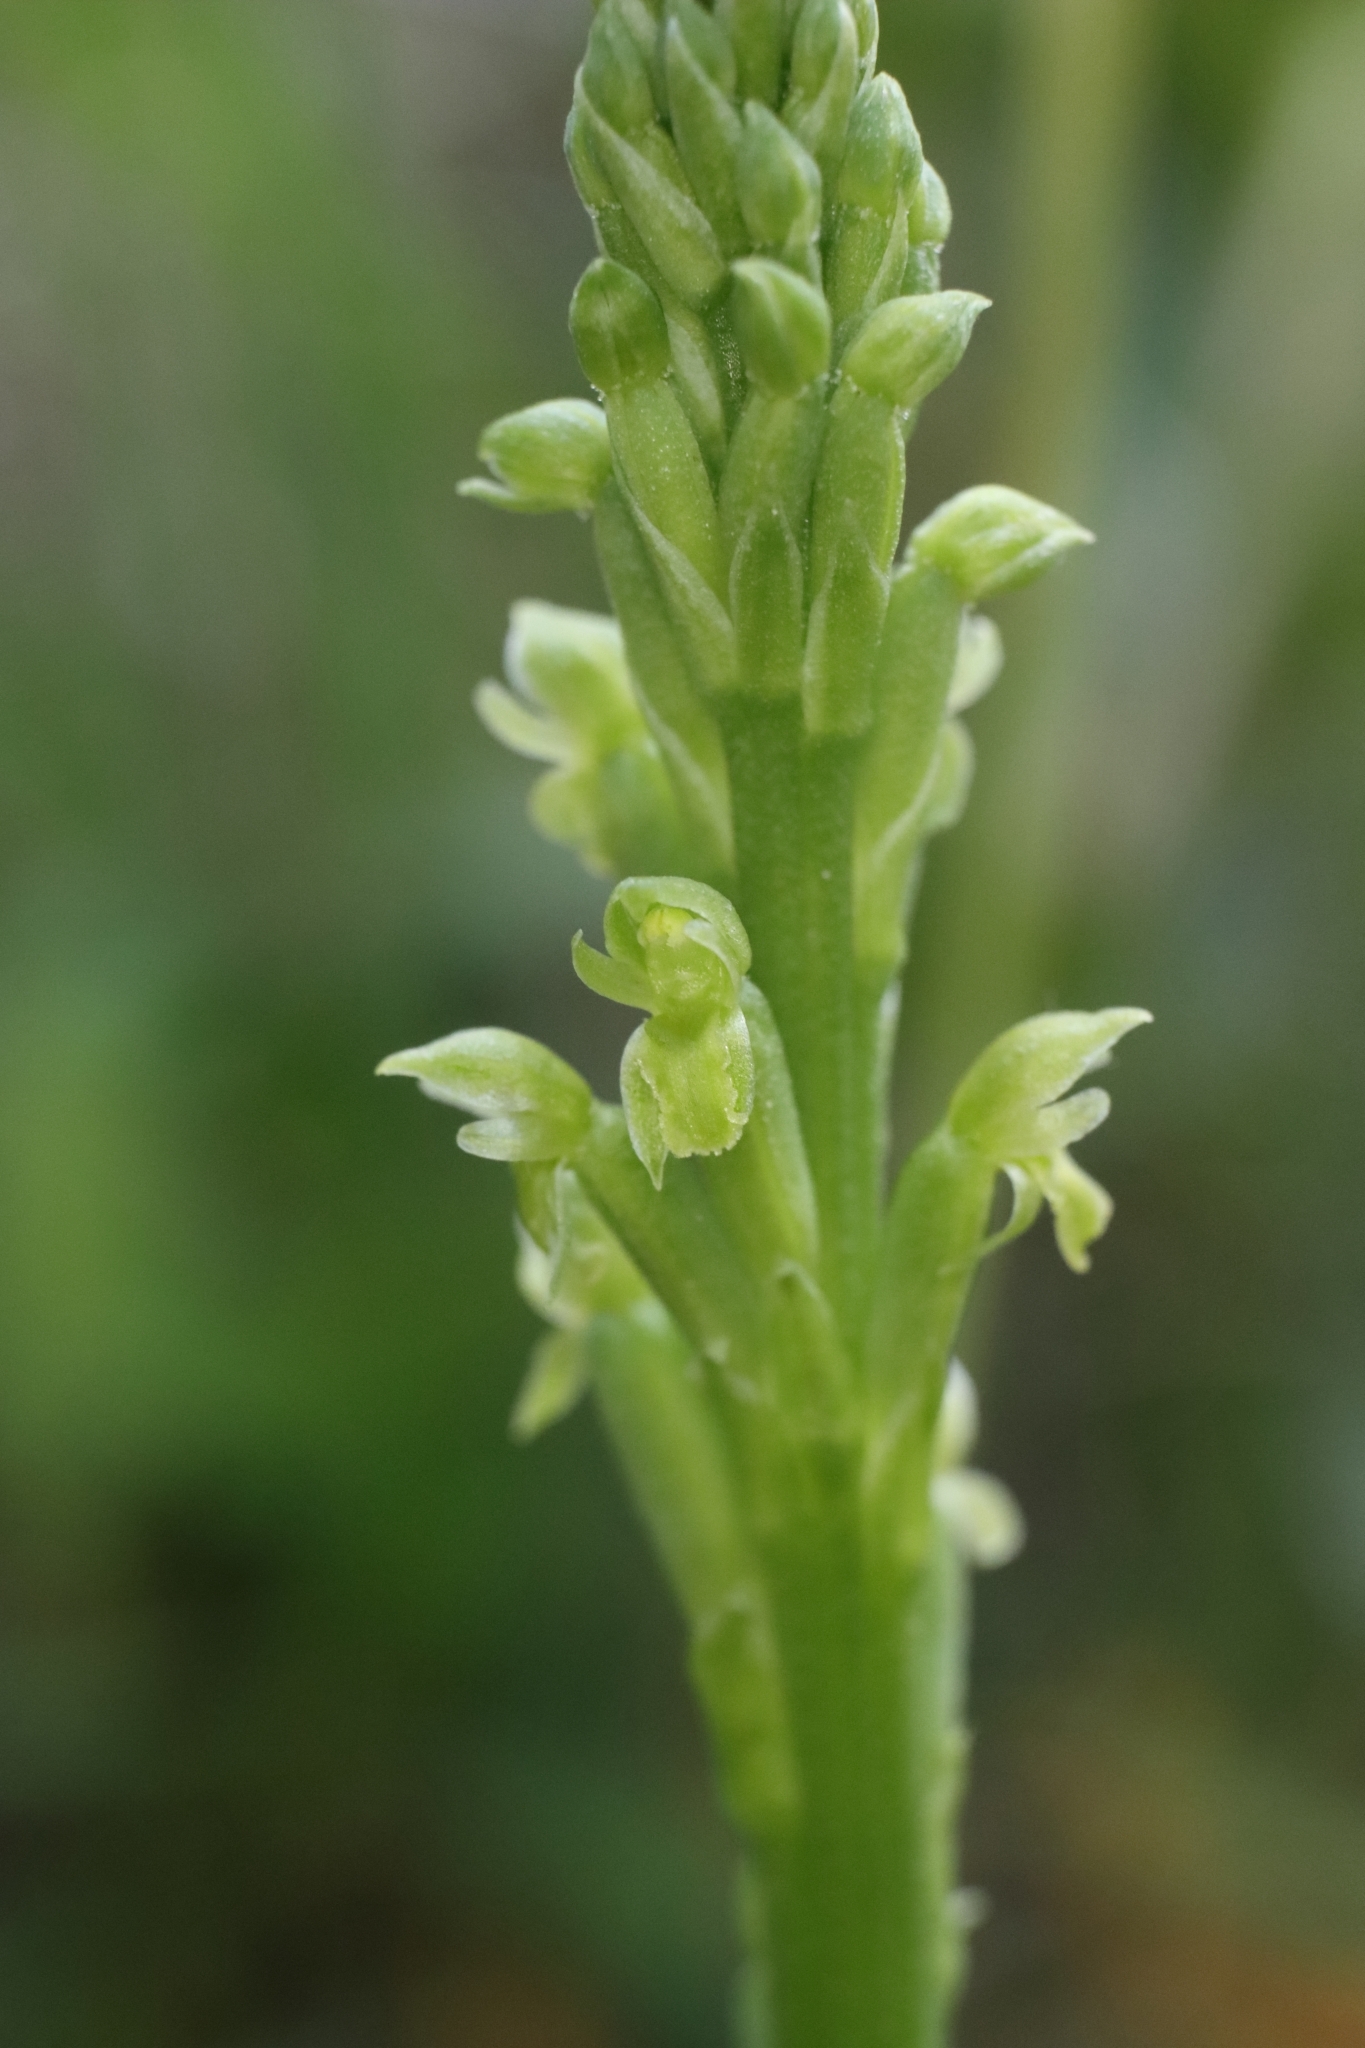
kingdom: Plantae
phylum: Tracheophyta
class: Liliopsida
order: Asparagales
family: Orchidaceae
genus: Microtis
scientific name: Microtis unifolia
